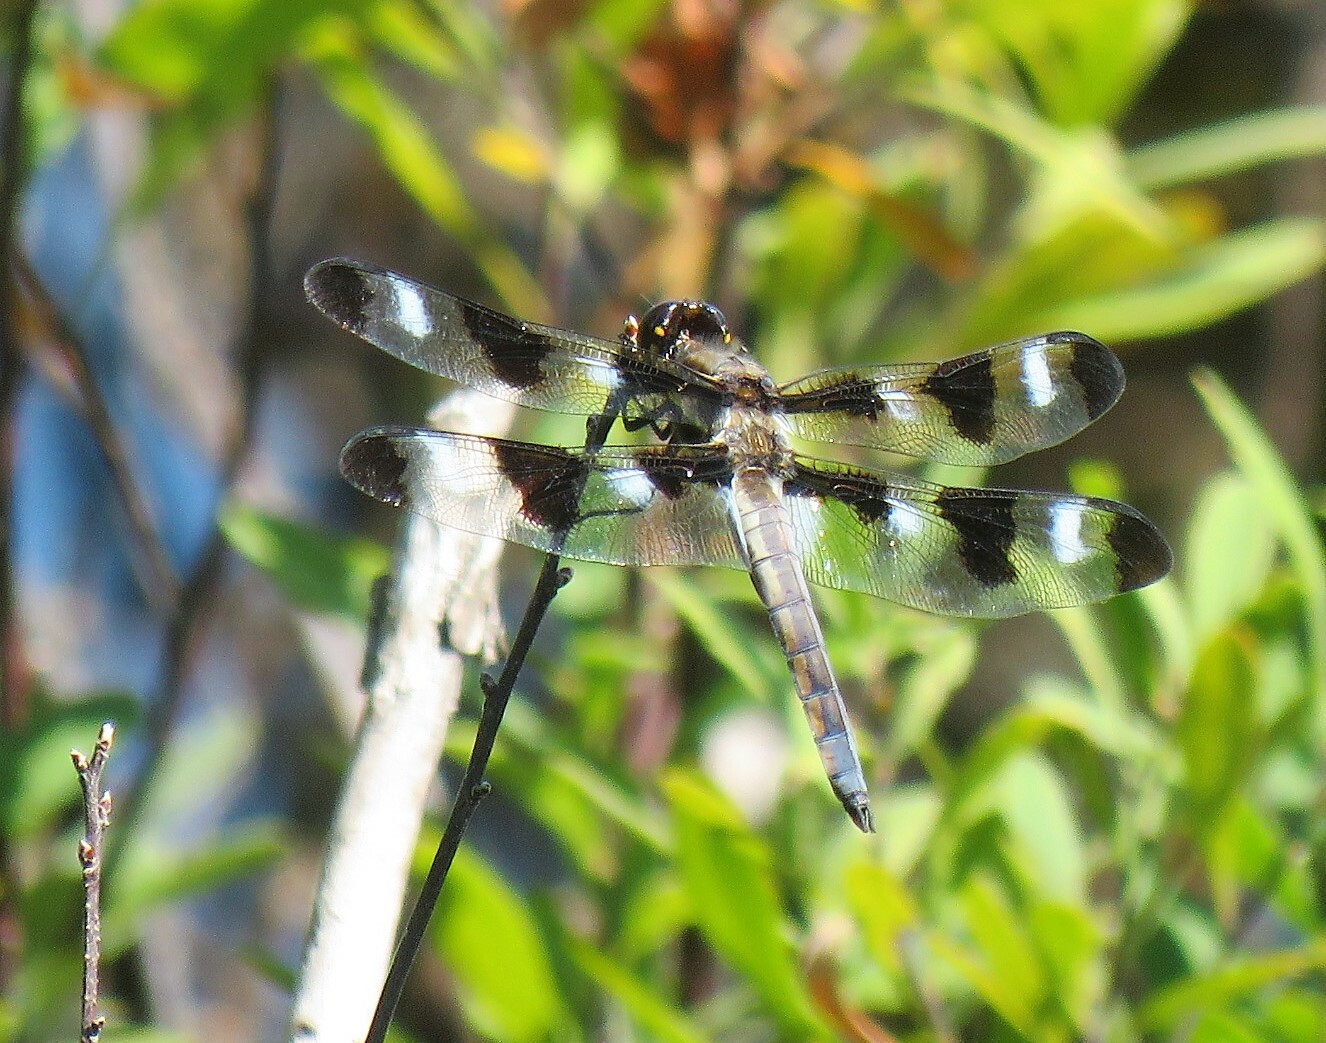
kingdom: Animalia
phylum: Arthropoda
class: Insecta
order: Odonata
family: Libellulidae
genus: Libellula
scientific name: Libellula pulchella
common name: Twelve-spotted skimmer
